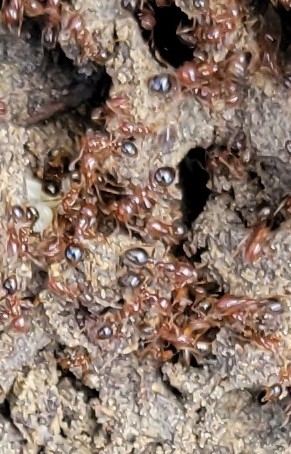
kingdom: Animalia
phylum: Arthropoda
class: Insecta
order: Hymenoptera
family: Formicidae
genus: Solenopsis
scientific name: Solenopsis invicta
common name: Red imported fire ant
